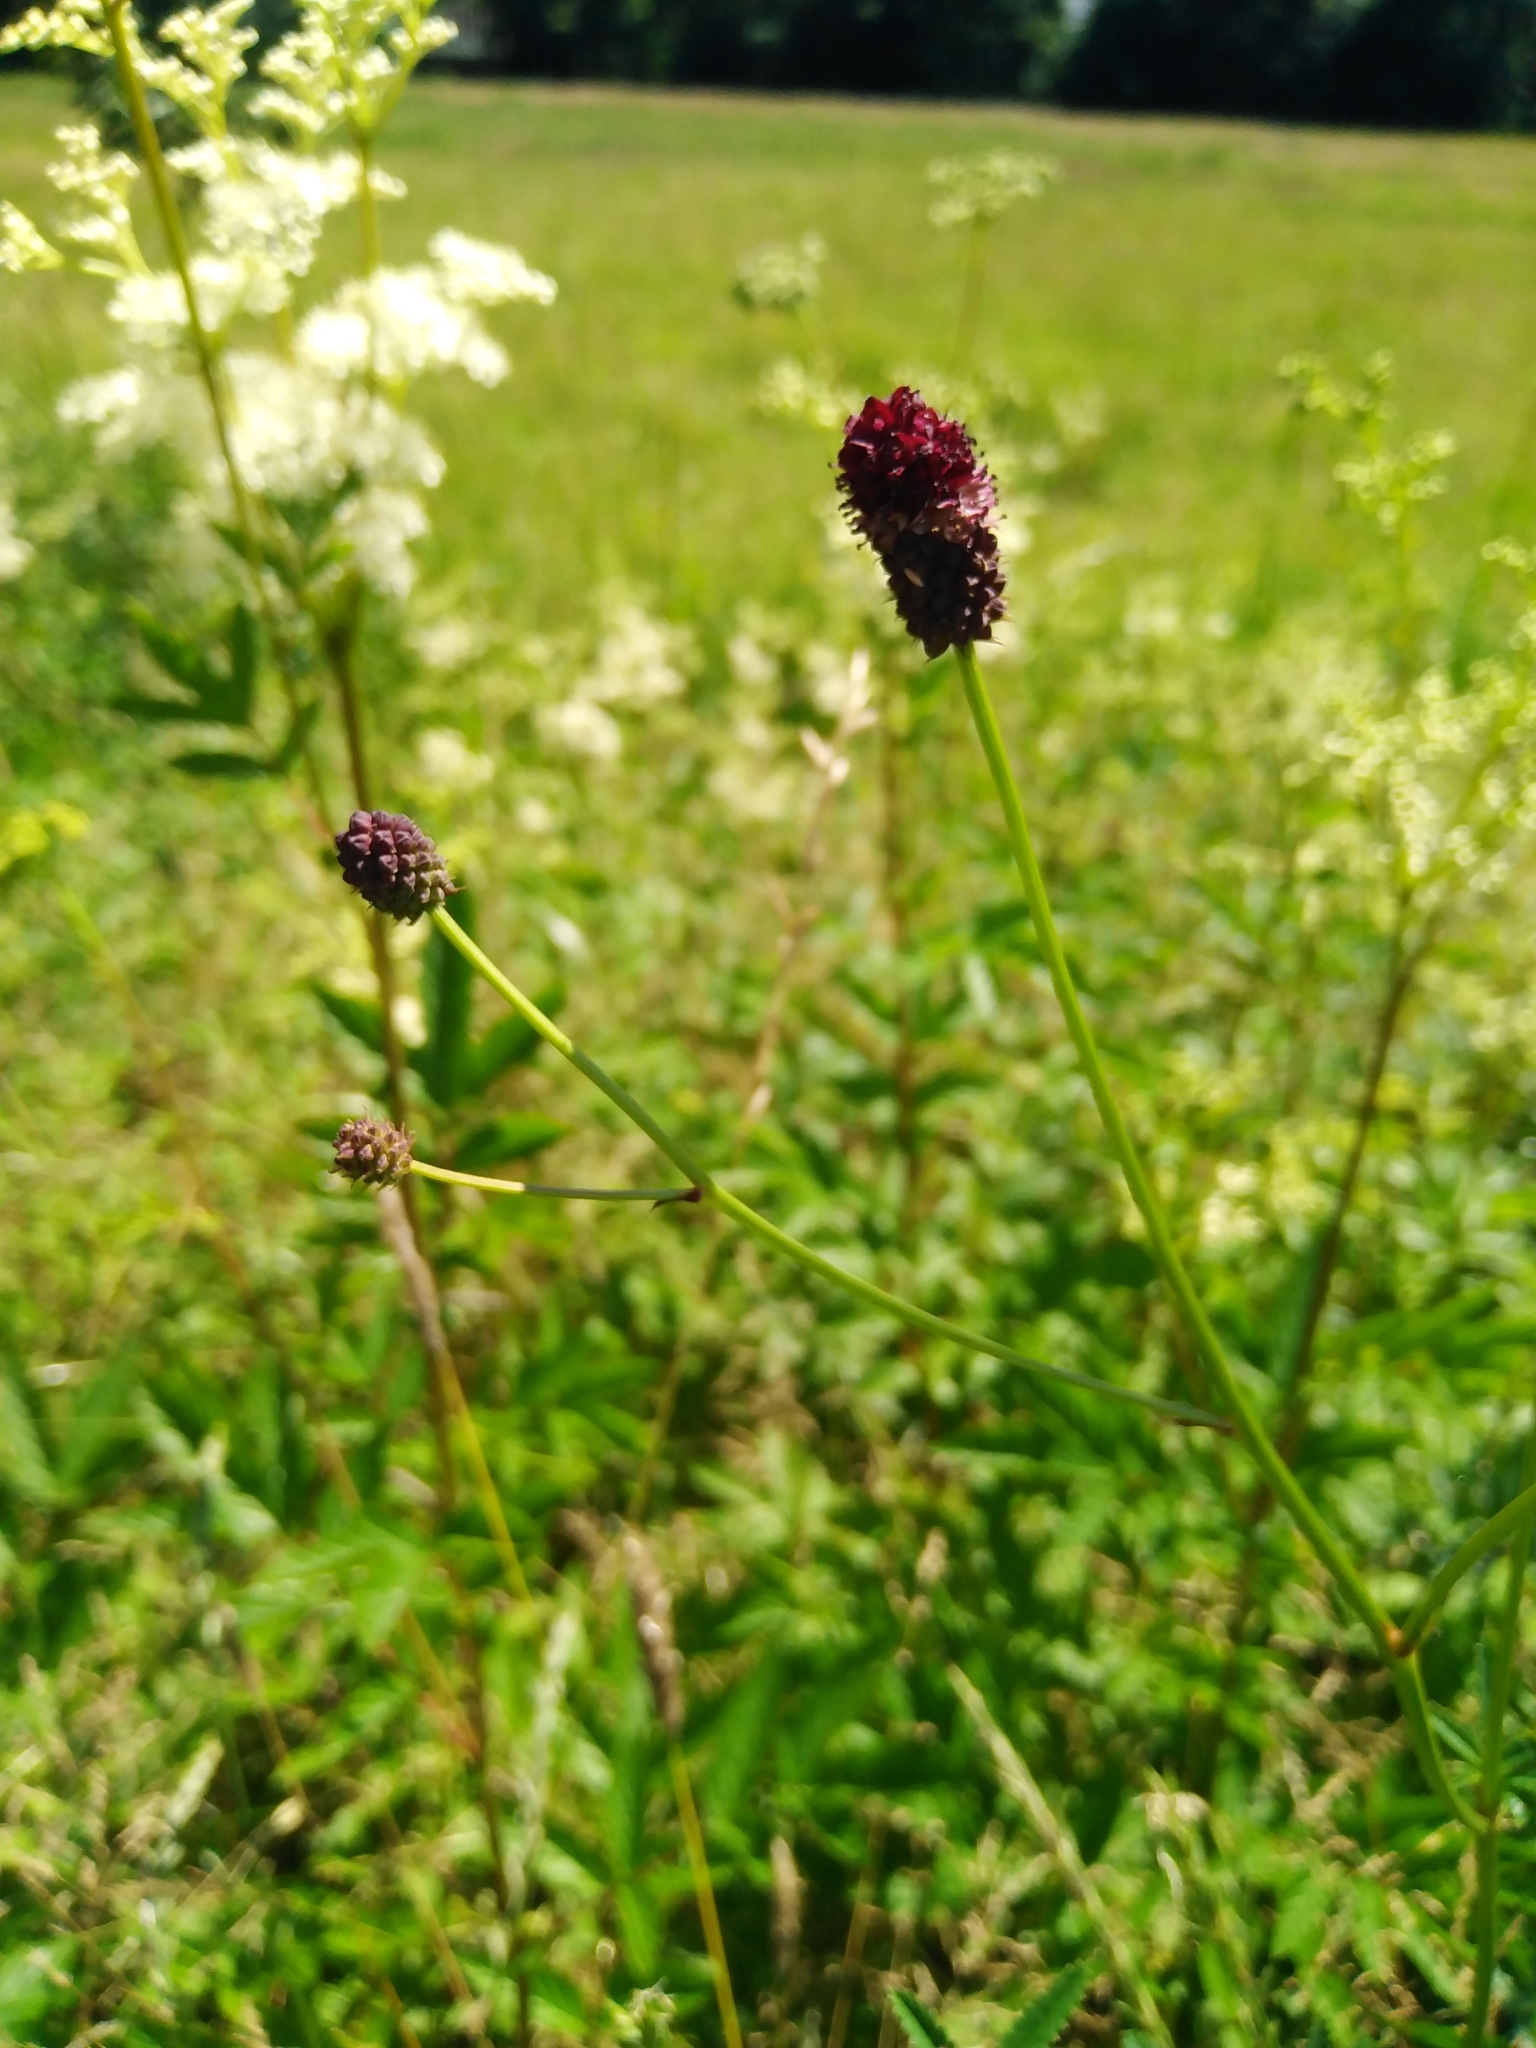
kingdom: Plantae
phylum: Tracheophyta
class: Magnoliopsida
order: Rosales
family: Rosaceae
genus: Sanguisorba
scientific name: Sanguisorba officinalis
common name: Great burnet
